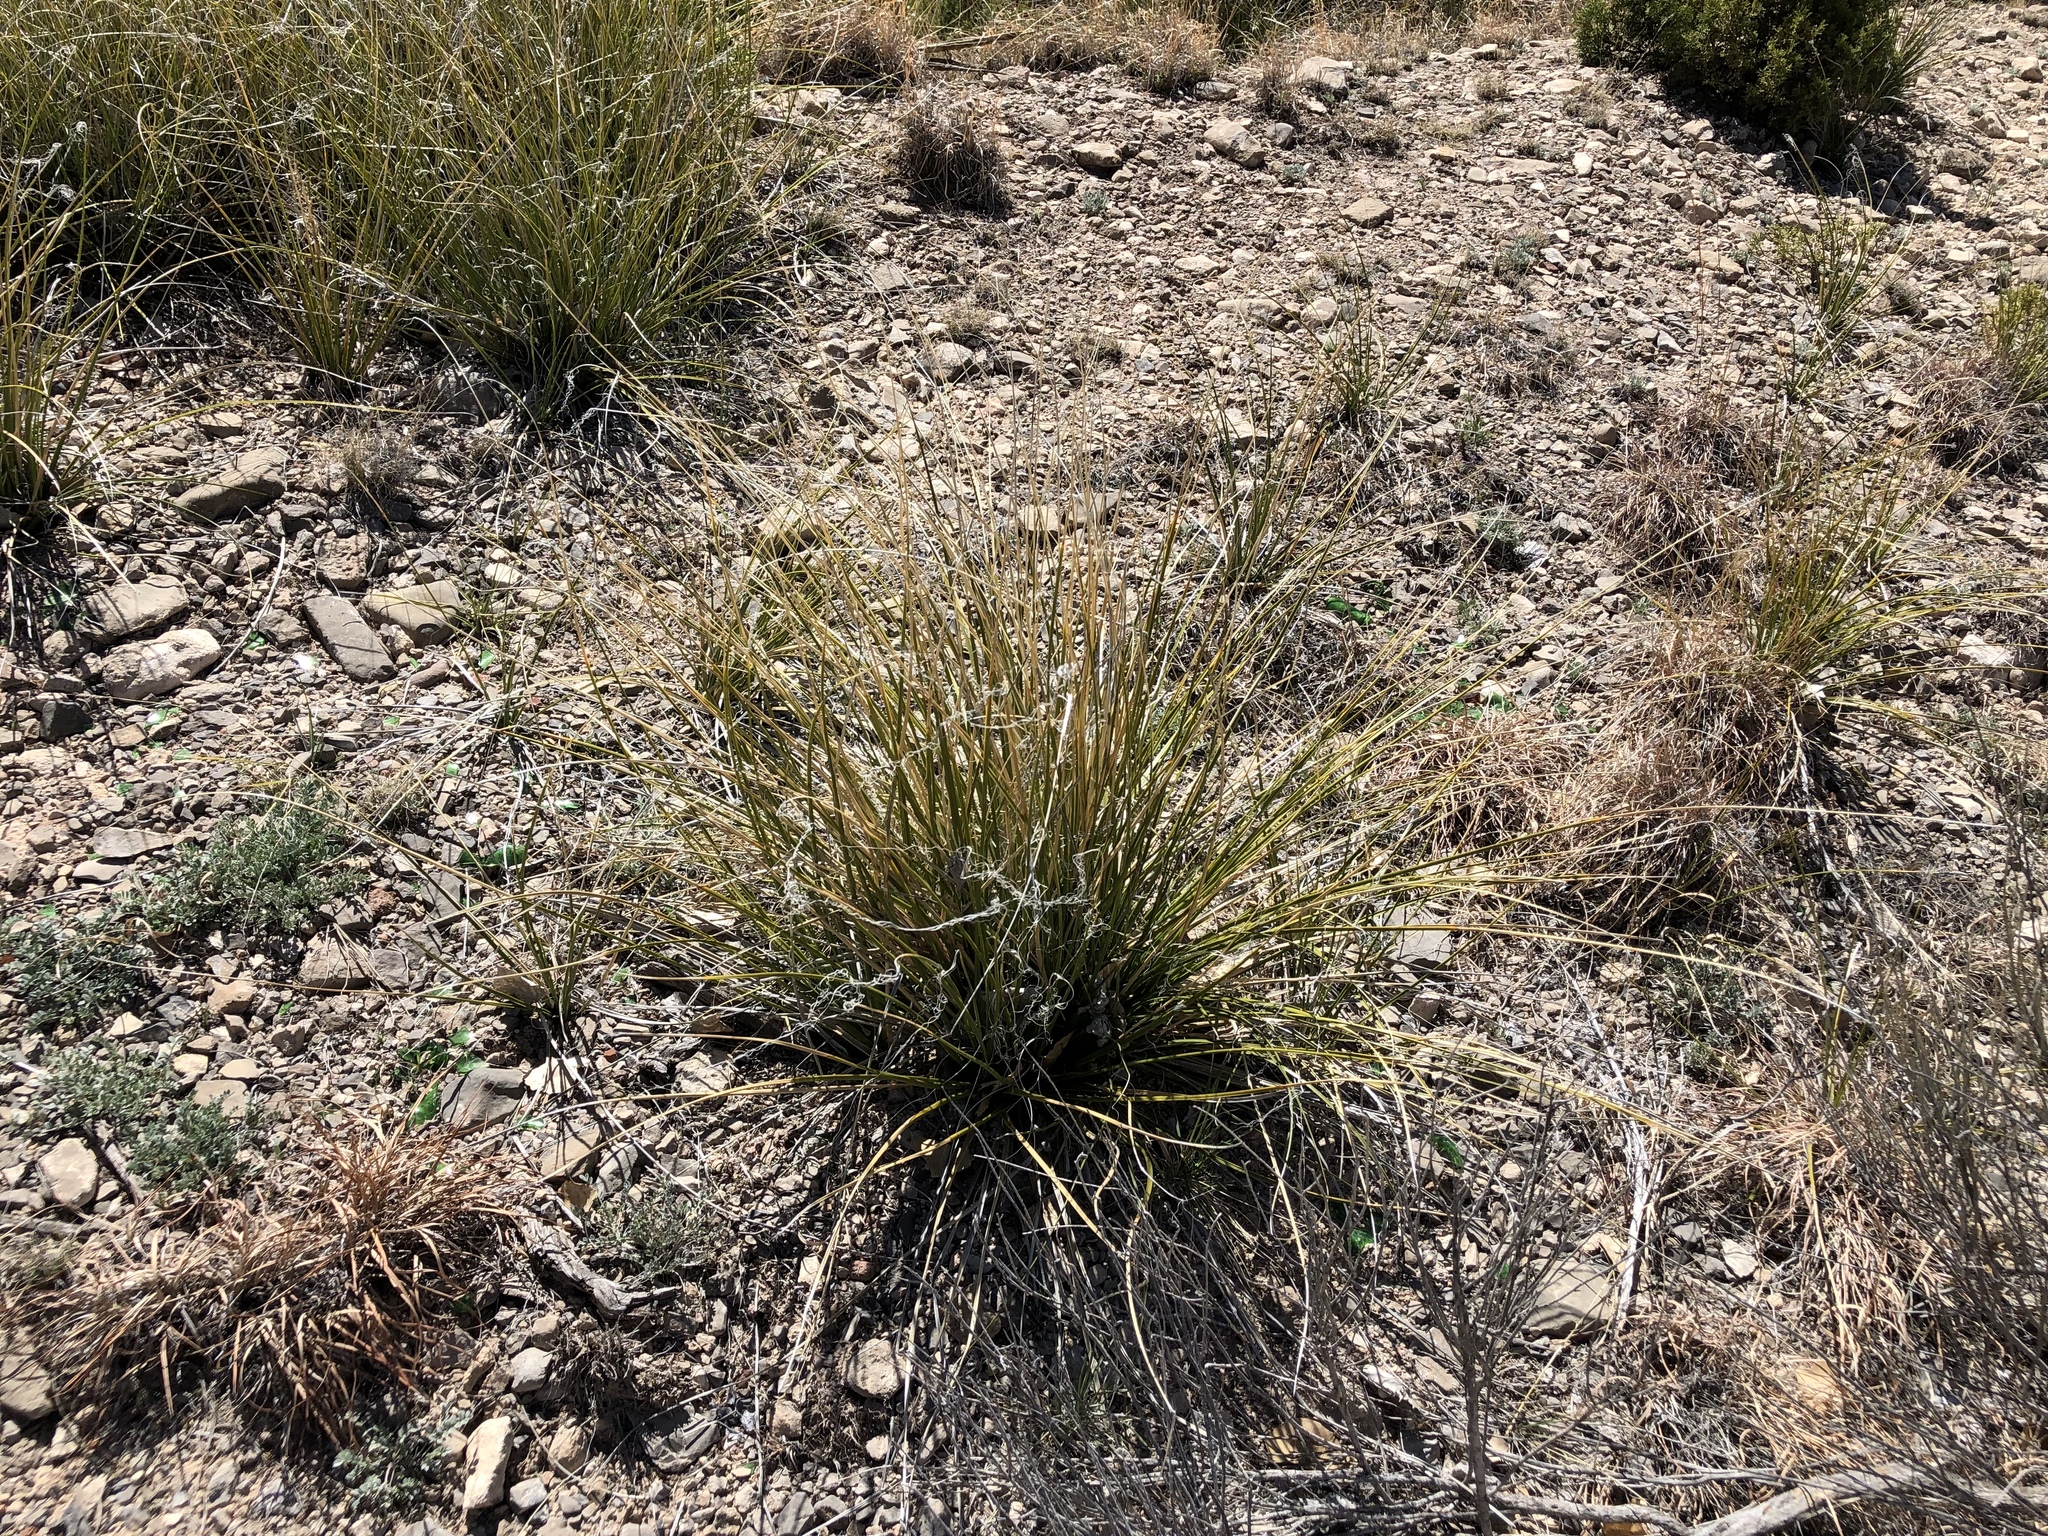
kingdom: Plantae
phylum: Tracheophyta
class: Liliopsida
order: Asparagales
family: Asparagaceae
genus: Nolina
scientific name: Nolina microcarpa
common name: Bear-grass
